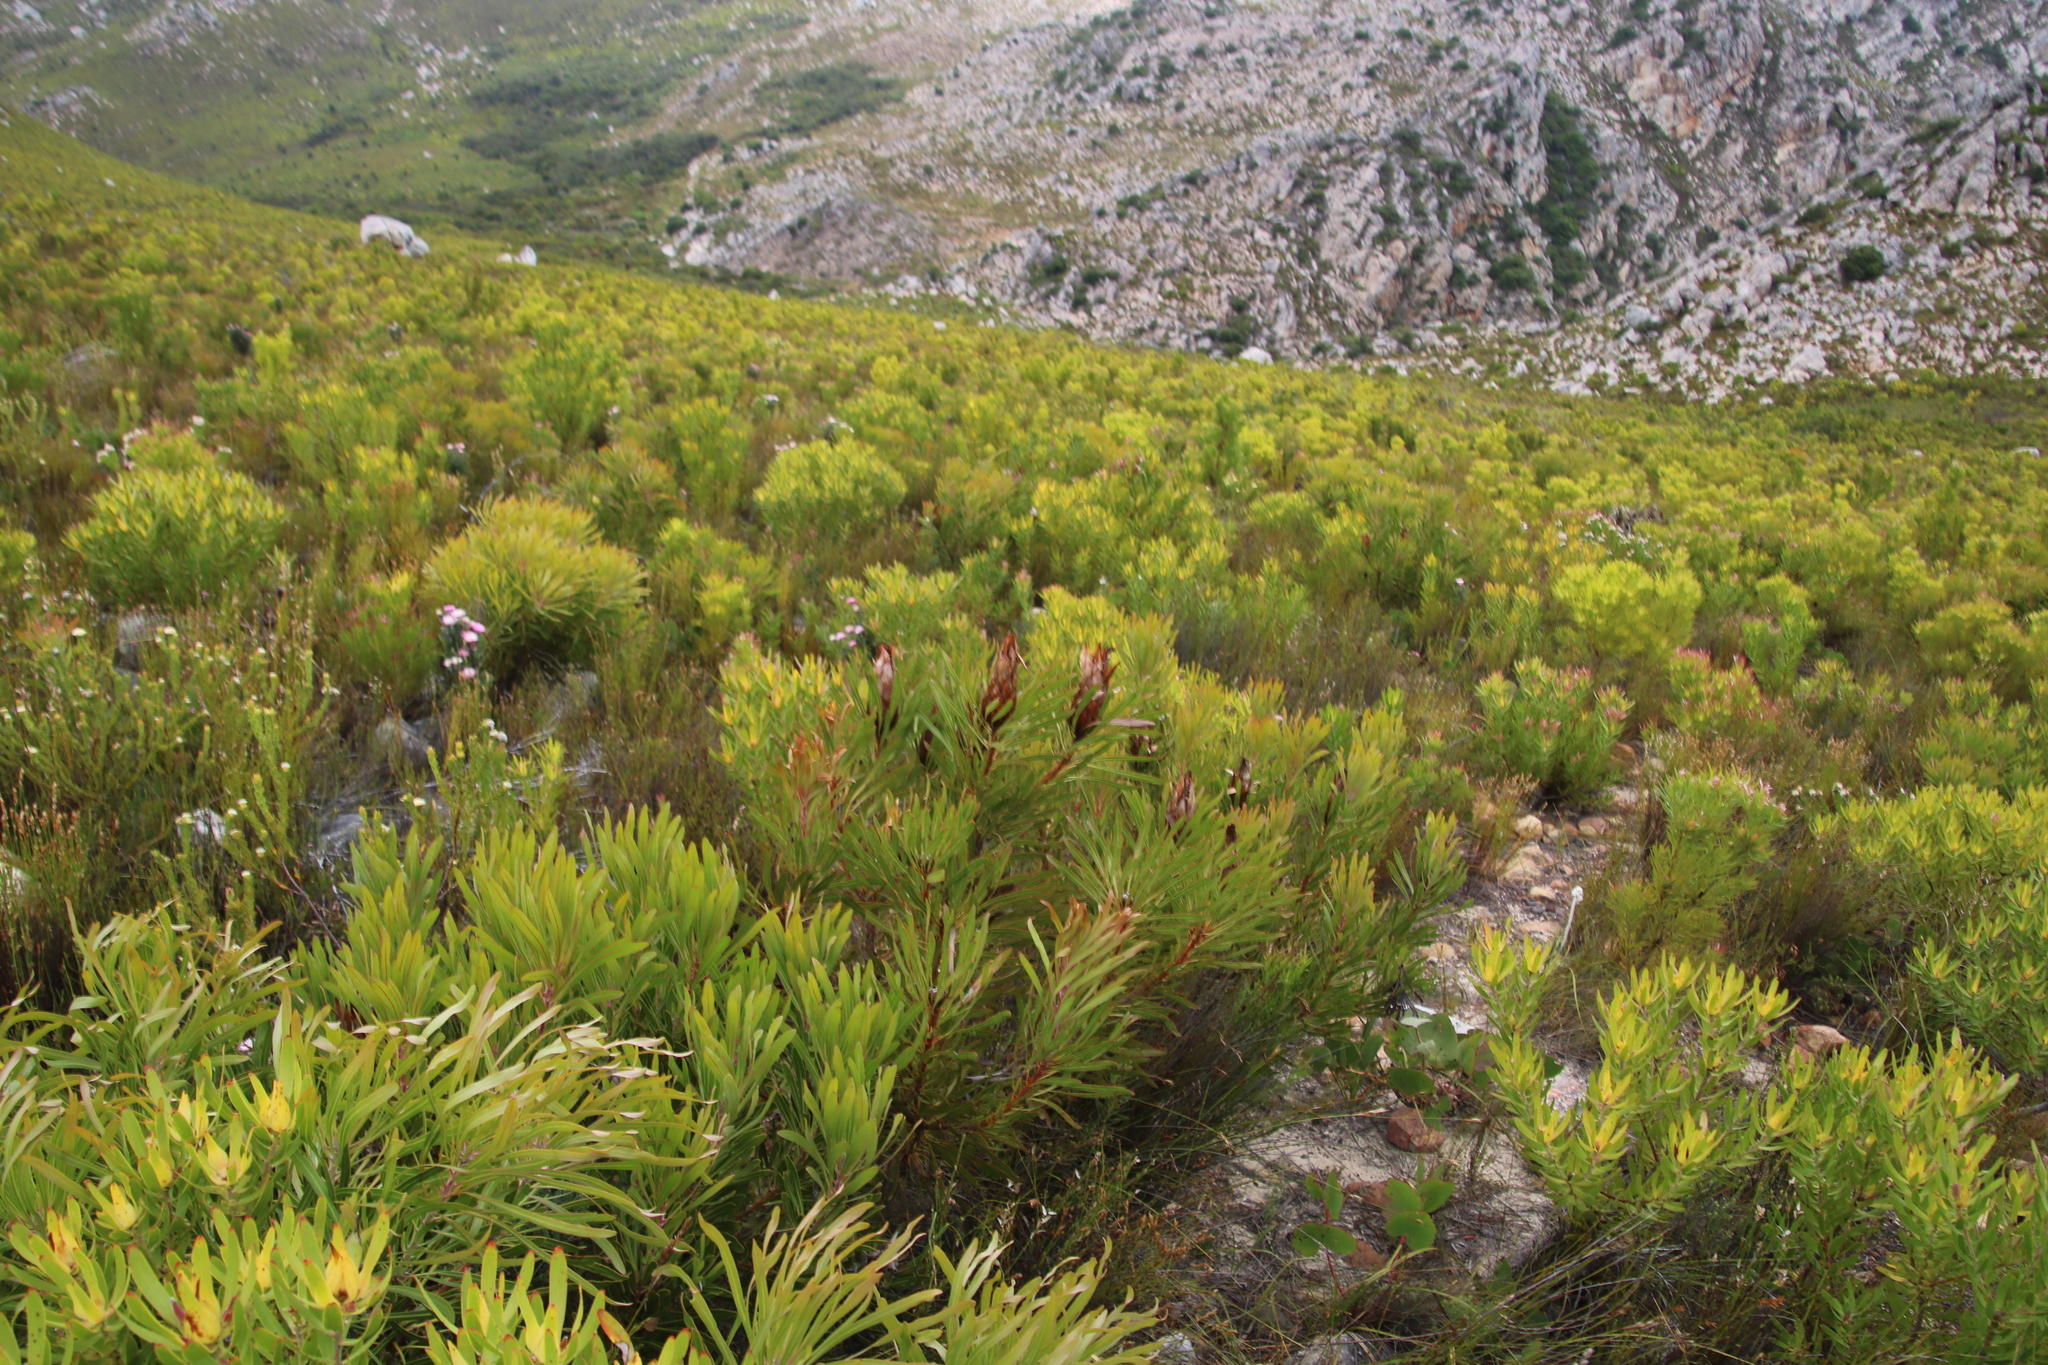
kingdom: Plantae
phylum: Tracheophyta
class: Magnoliopsida
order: Proteales
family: Proteaceae
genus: Protea
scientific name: Protea longifolia
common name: Long-leaf sugarbush
